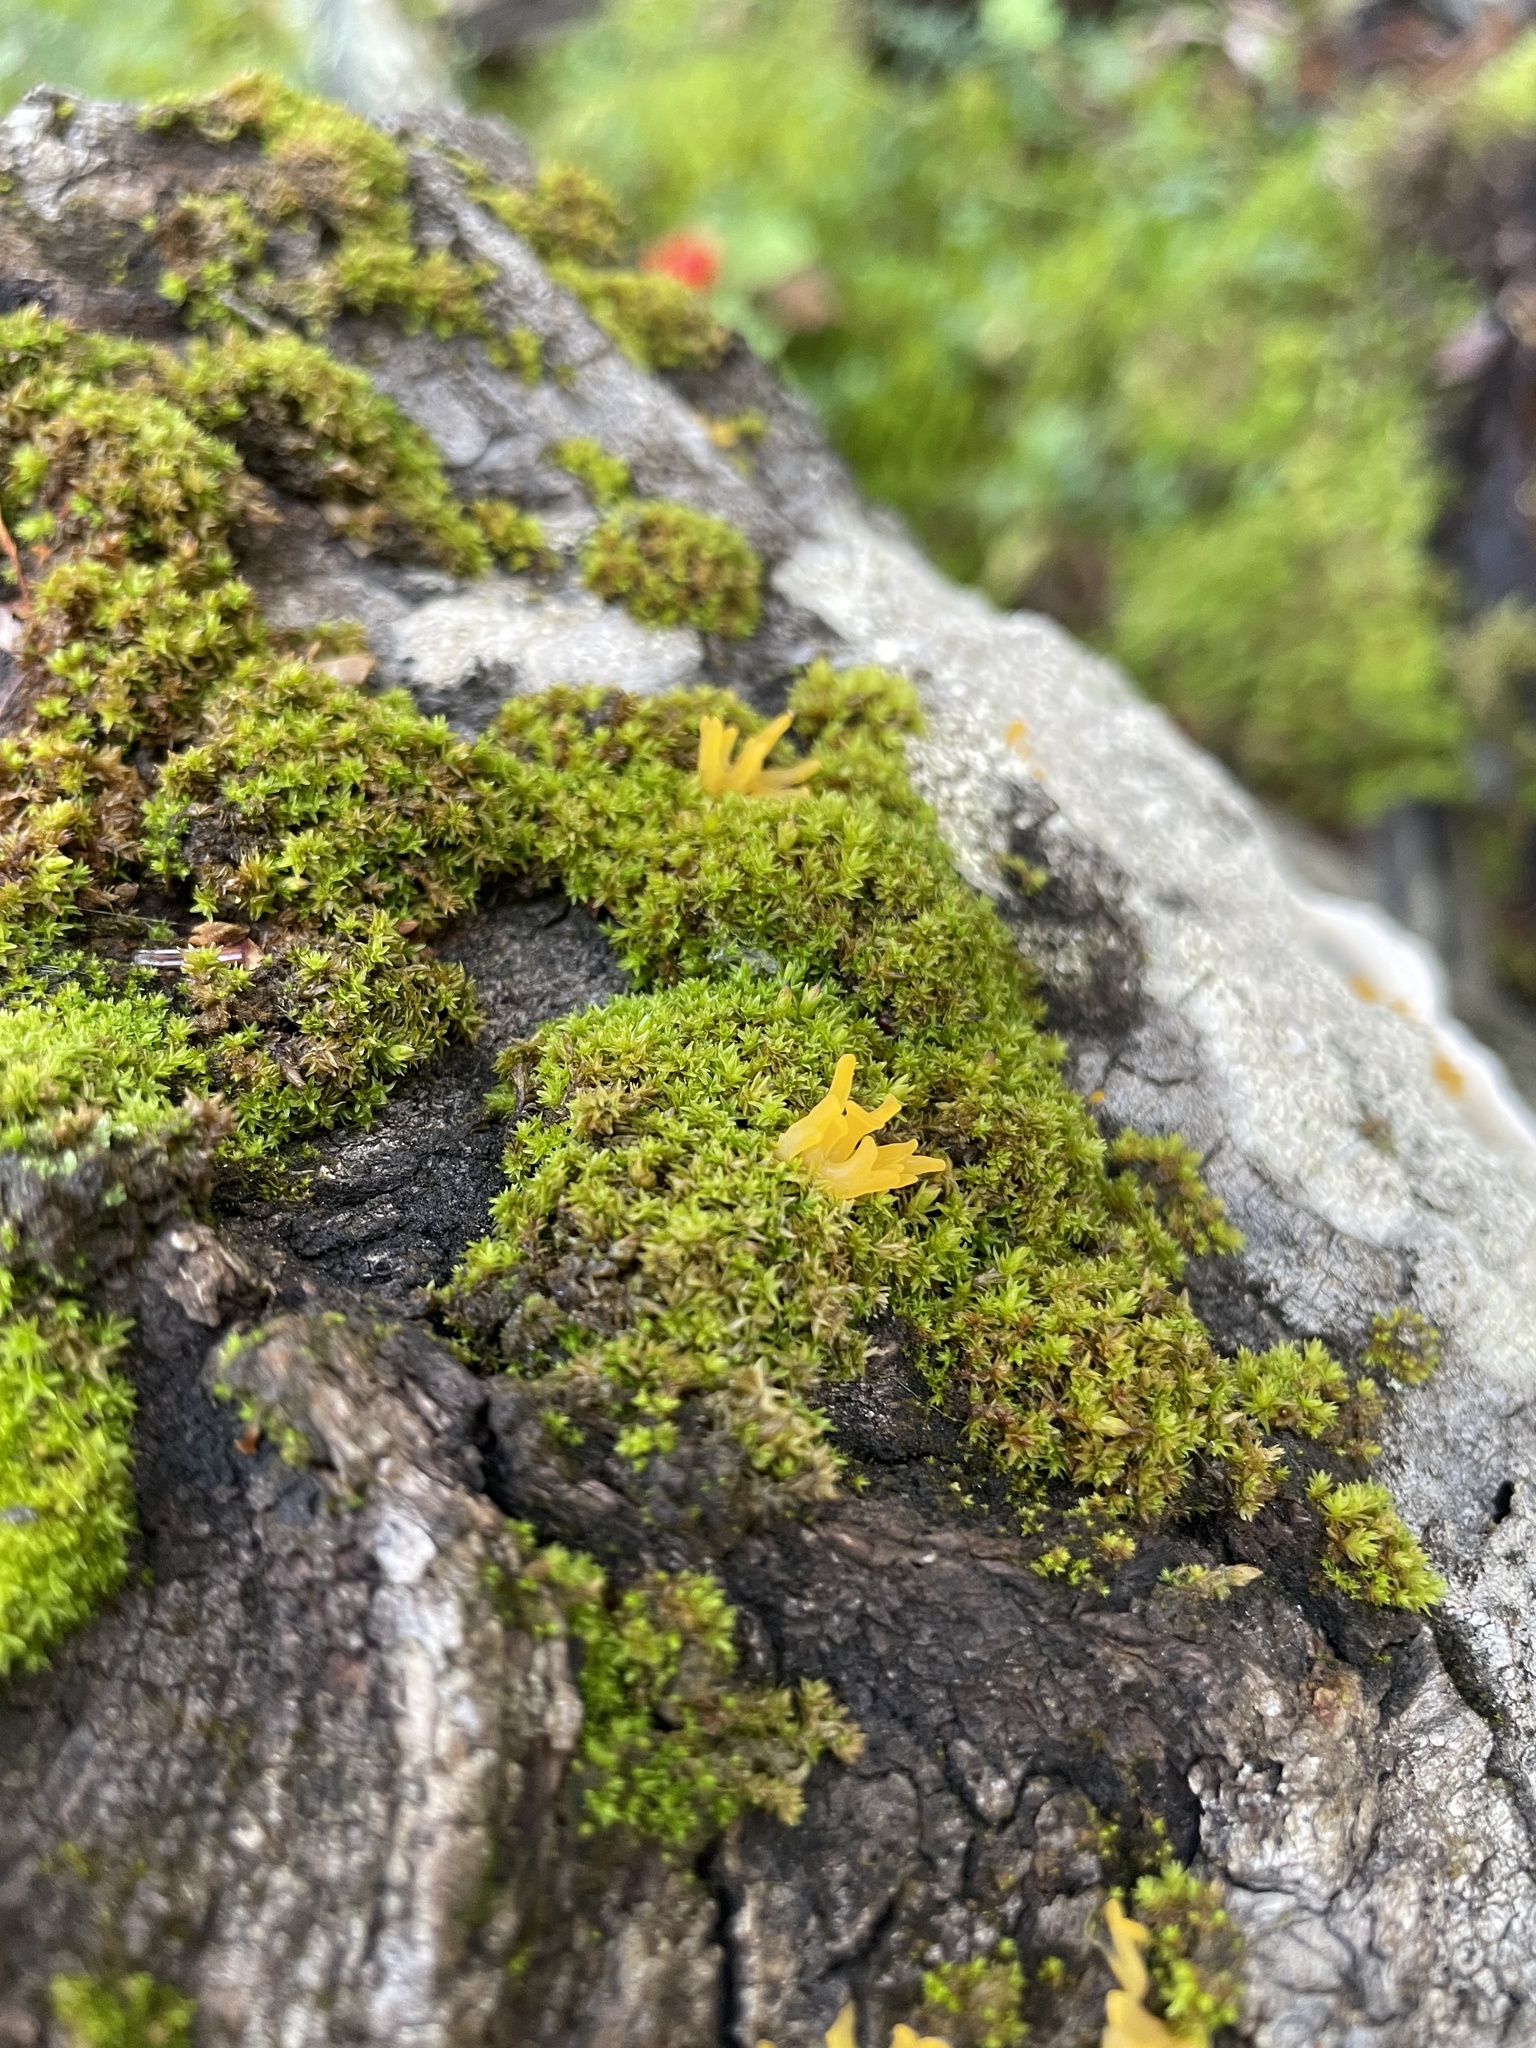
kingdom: Fungi
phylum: Basidiomycota
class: Dacrymycetes
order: Dacrymycetales
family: Dacrymycetaceae
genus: Calocera
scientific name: Calocera cornea
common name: Small stagshorn
